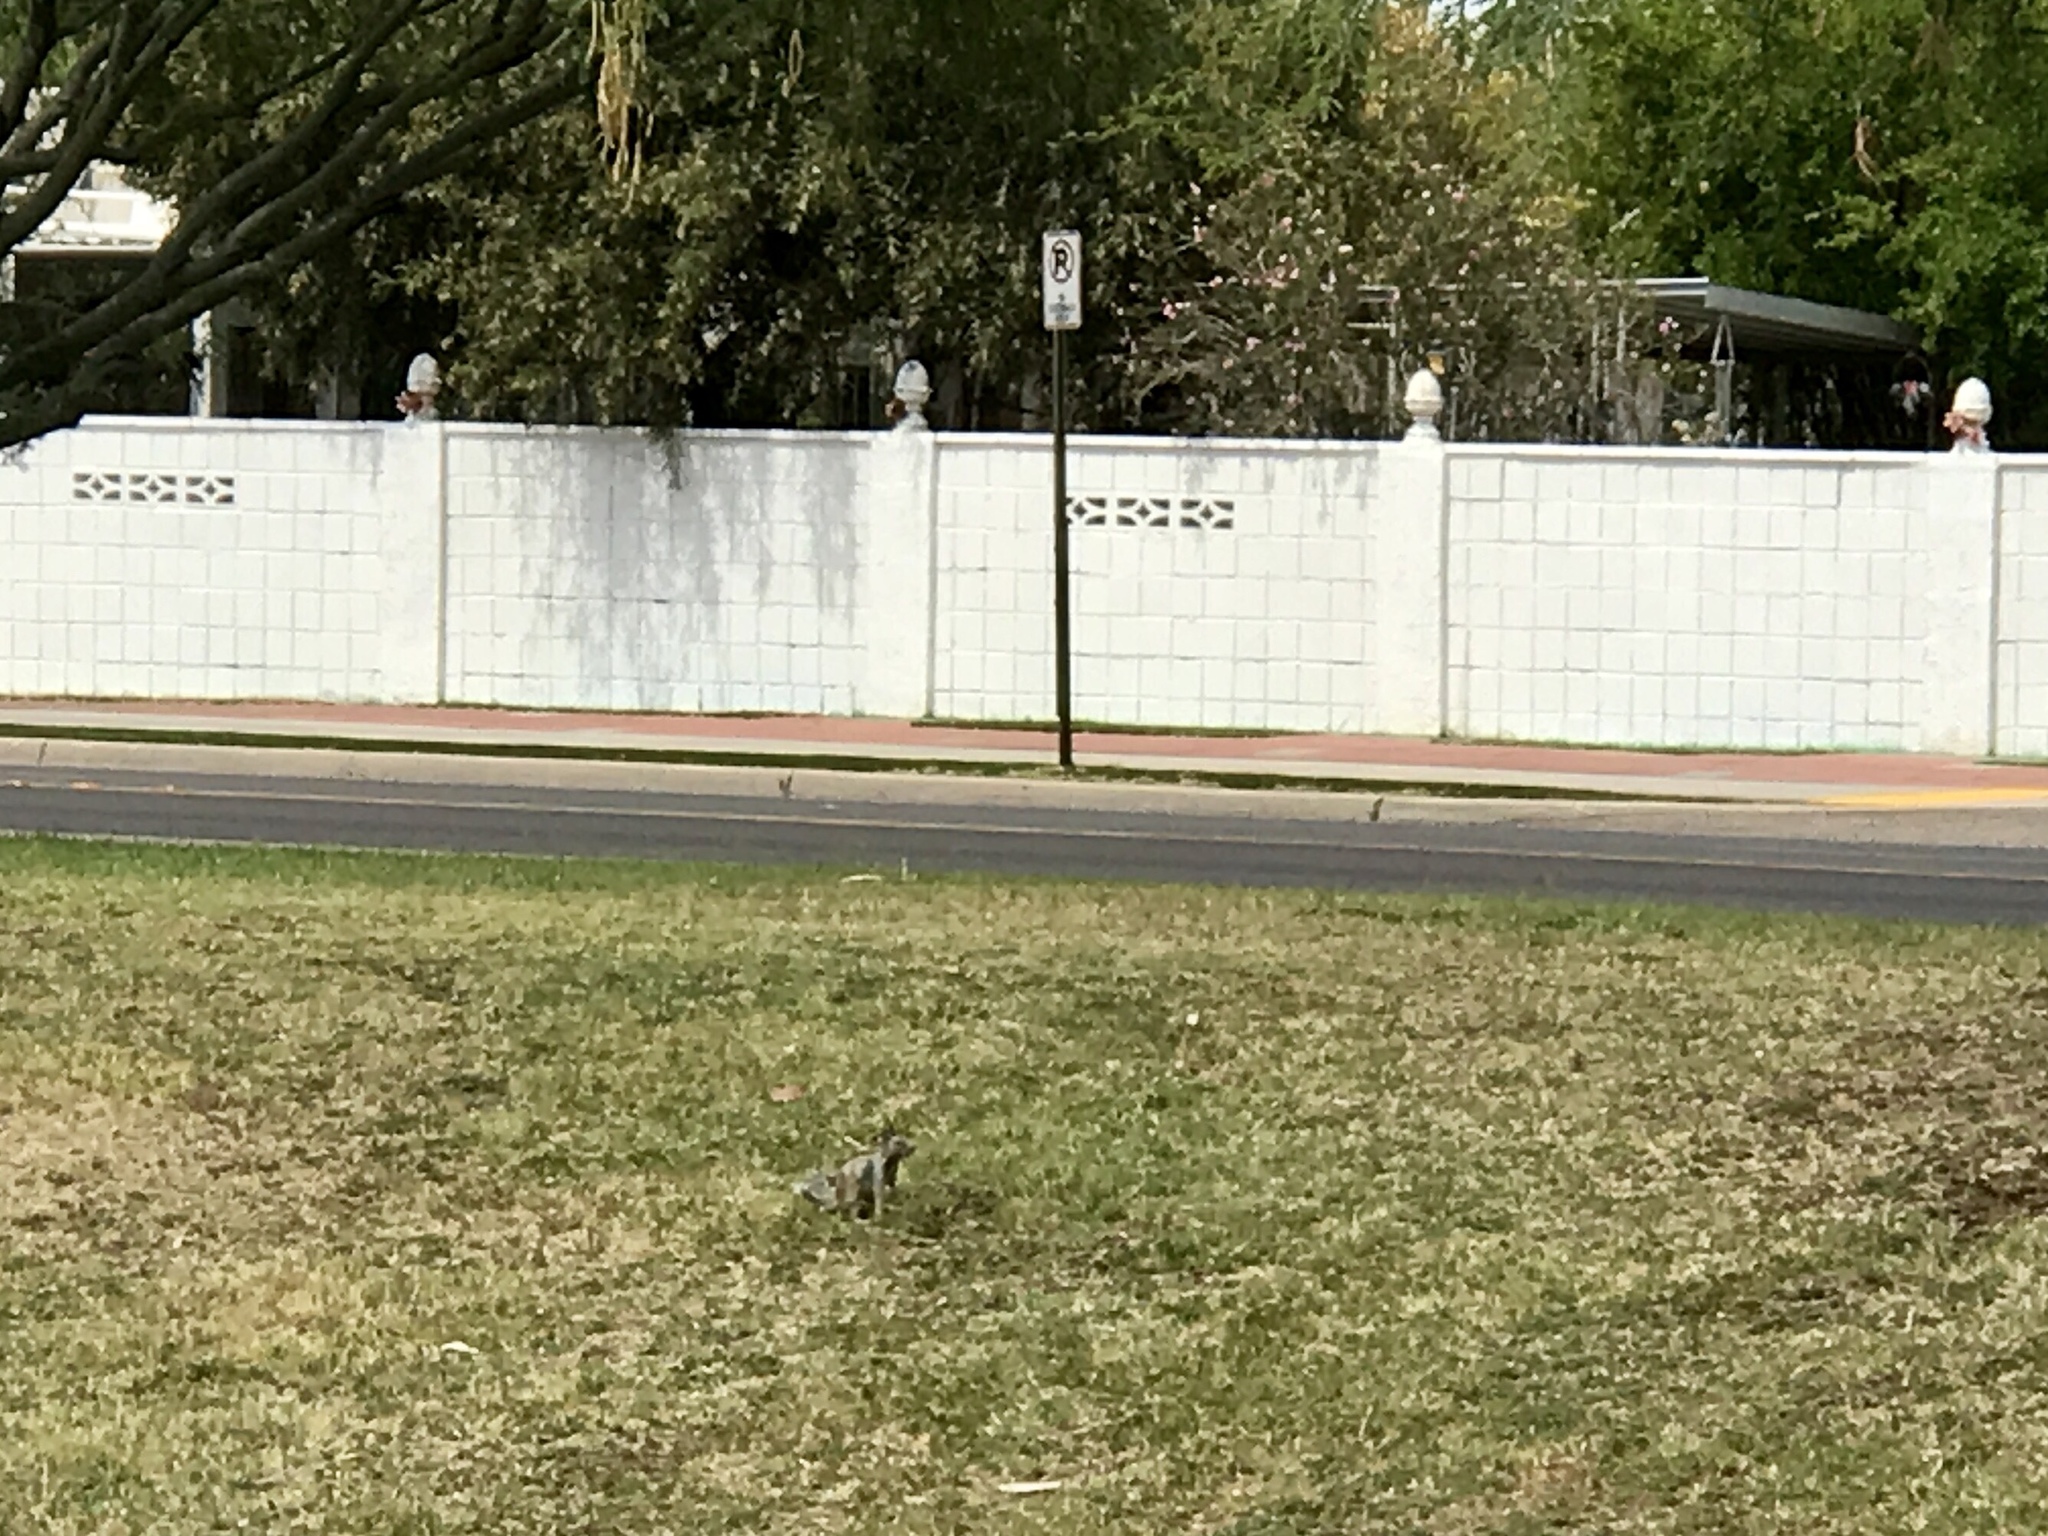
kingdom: Animalia
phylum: Chordata
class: Mammalia
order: Rodentia
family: Sciuridae
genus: Otospermophilus
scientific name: Otospermophilus variegatus
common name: Rock squirrel
